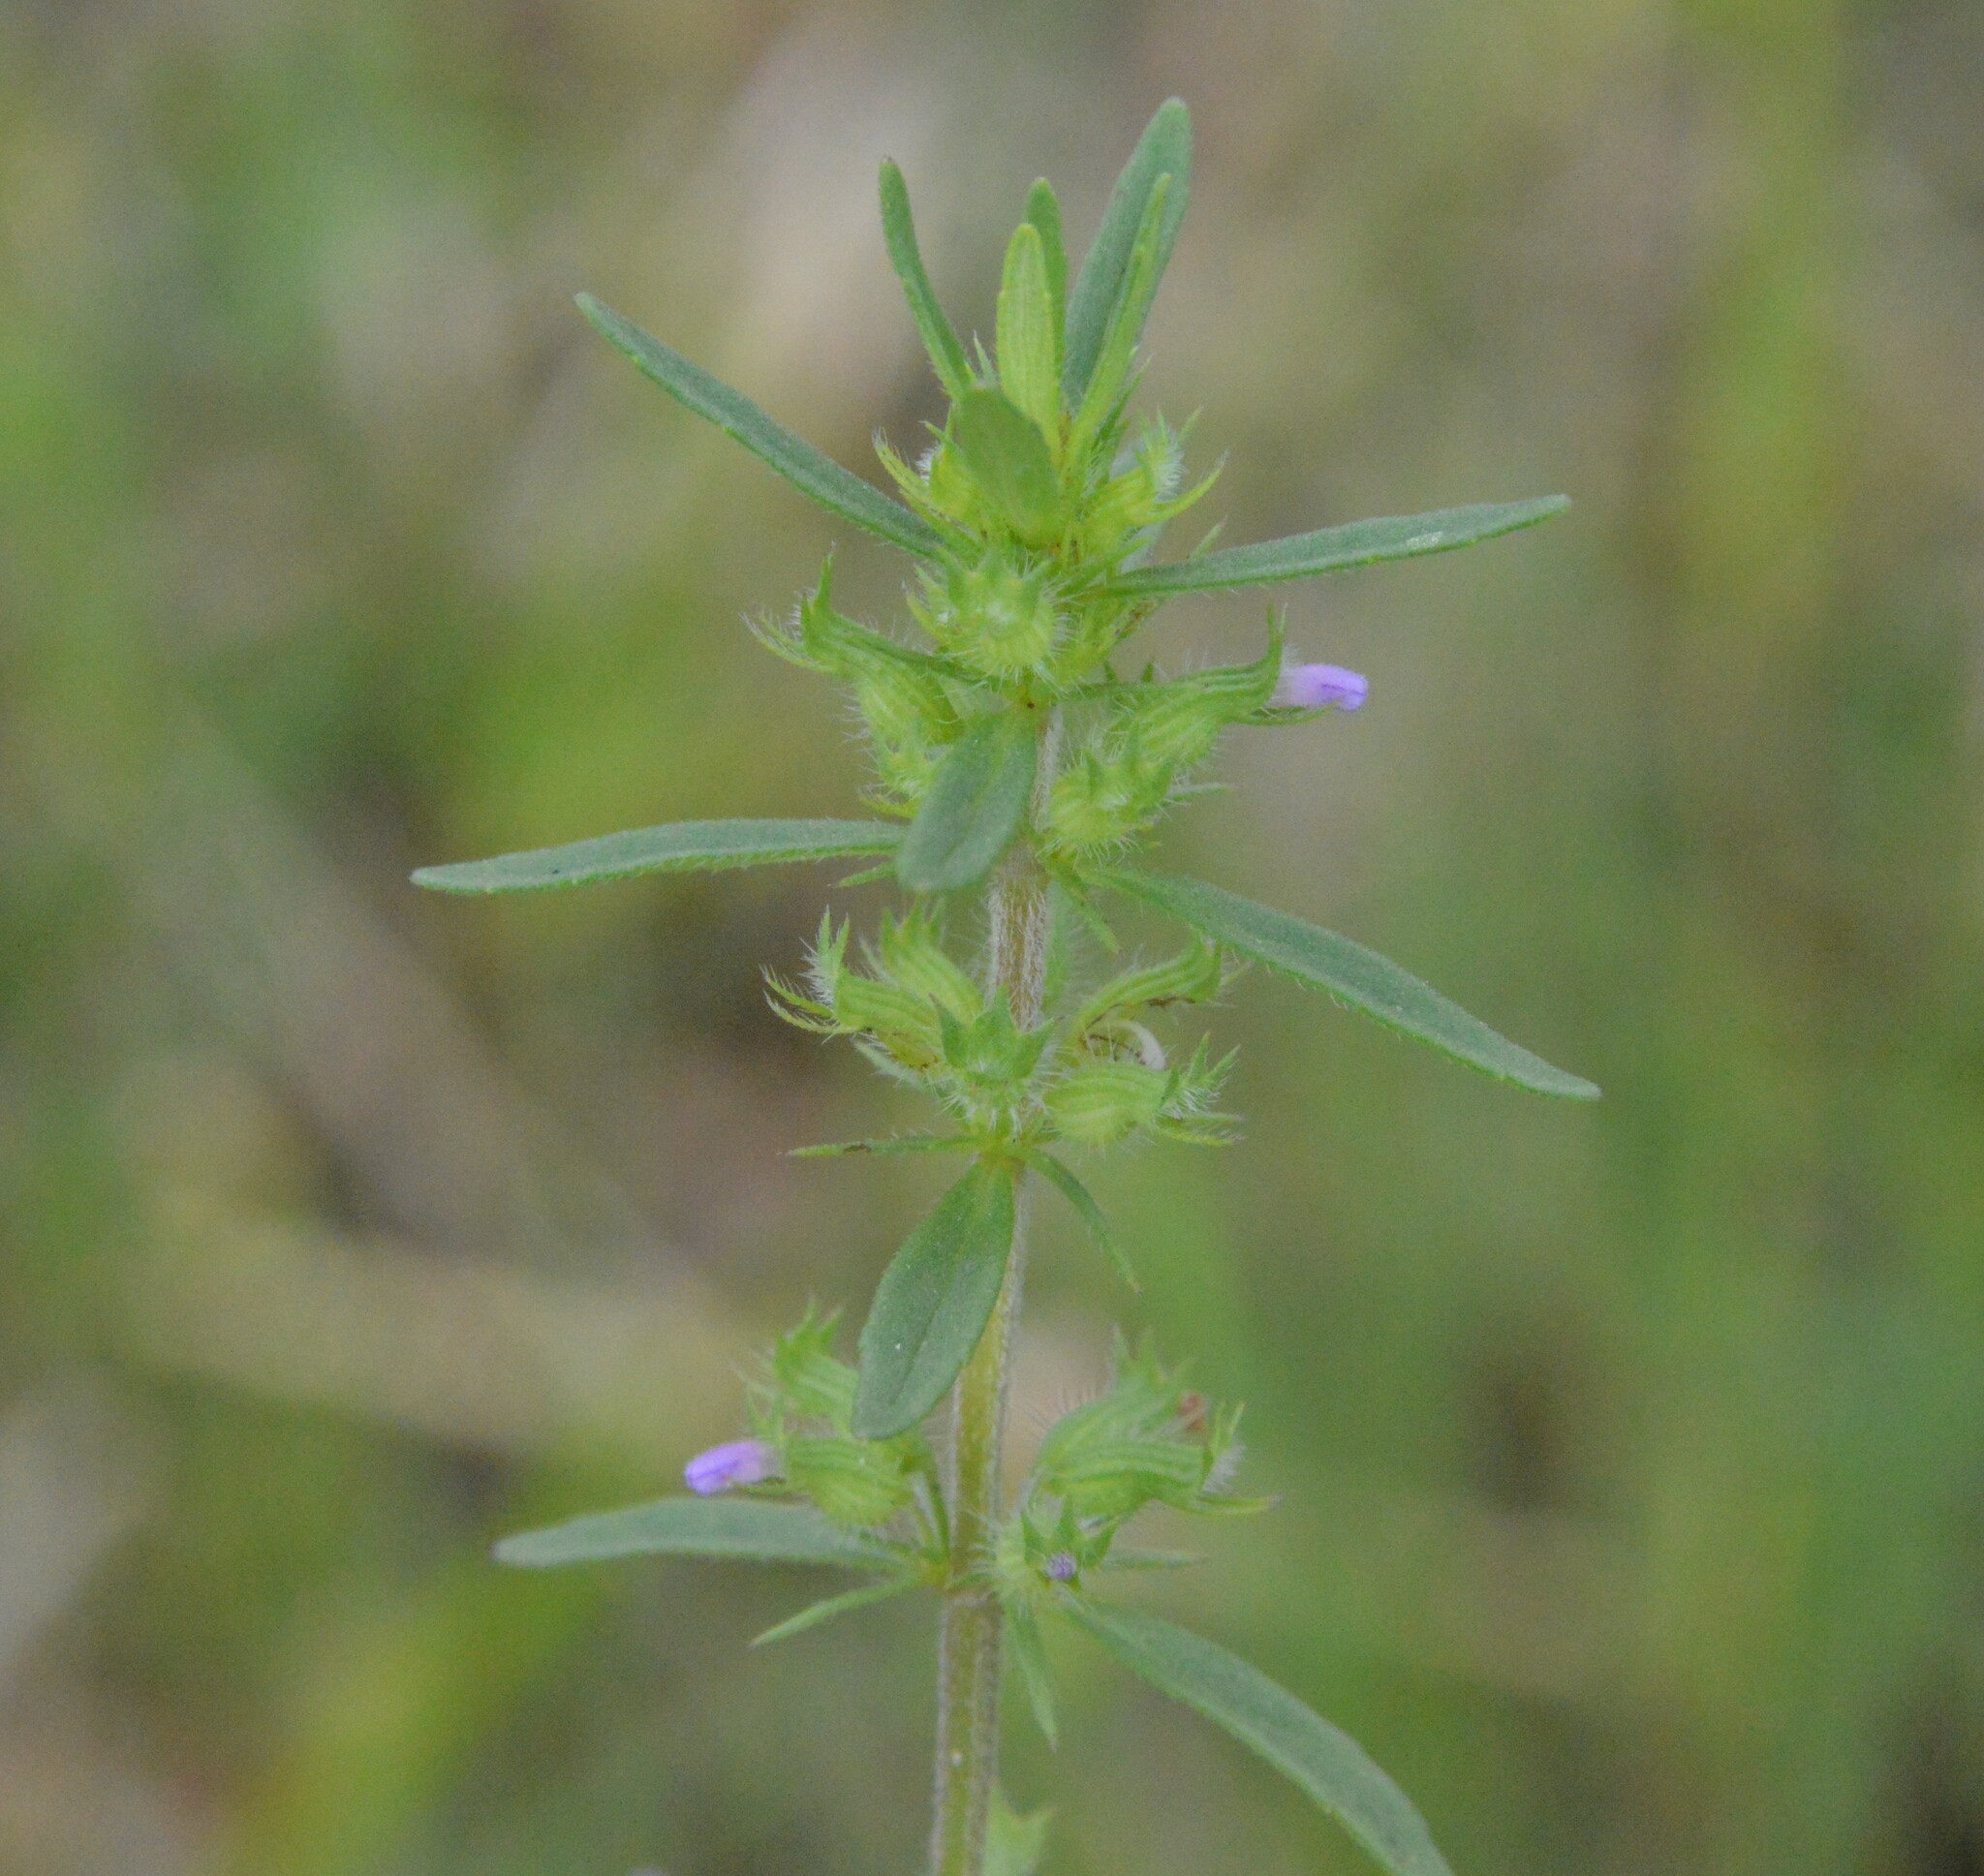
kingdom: Plantae
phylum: Tracheophyta
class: Magnoliopsida
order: Lamiales
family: Lamiaceae
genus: Hedeoma
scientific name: Hedeoma hispida
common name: Mock pennyroyal
